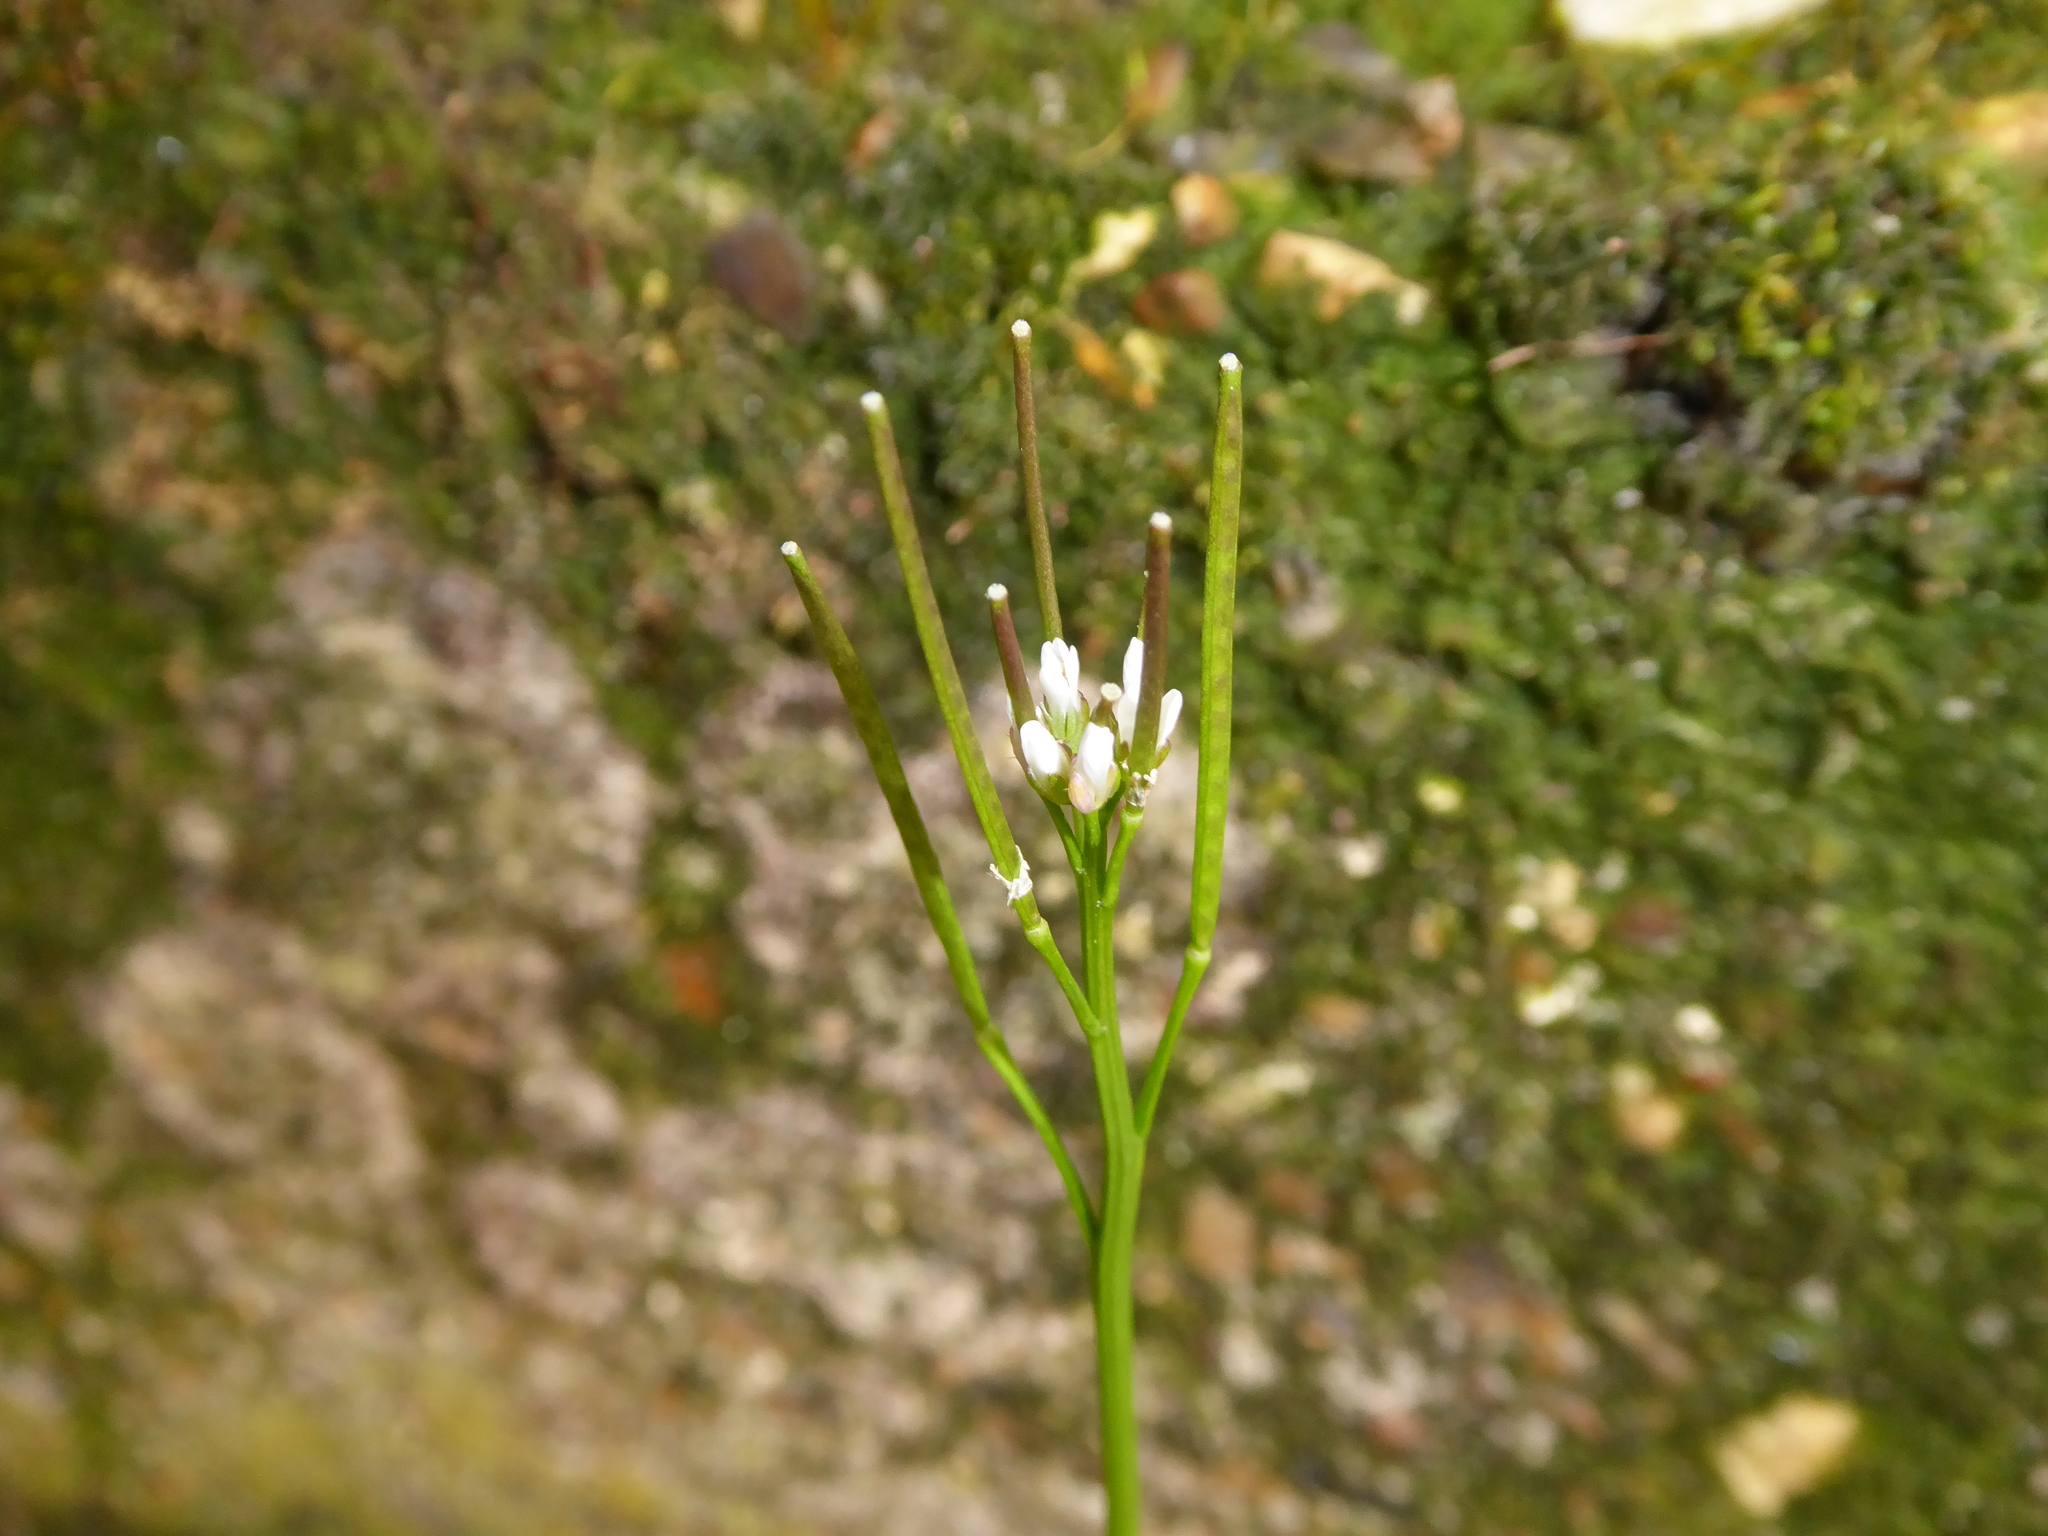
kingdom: Plantae
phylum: Tracheophyta
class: Magnoliopsida
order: Brassicales
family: Brassicaceae
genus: Cardamine
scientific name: Cardamine hirsuta
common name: Hairy bittercress
